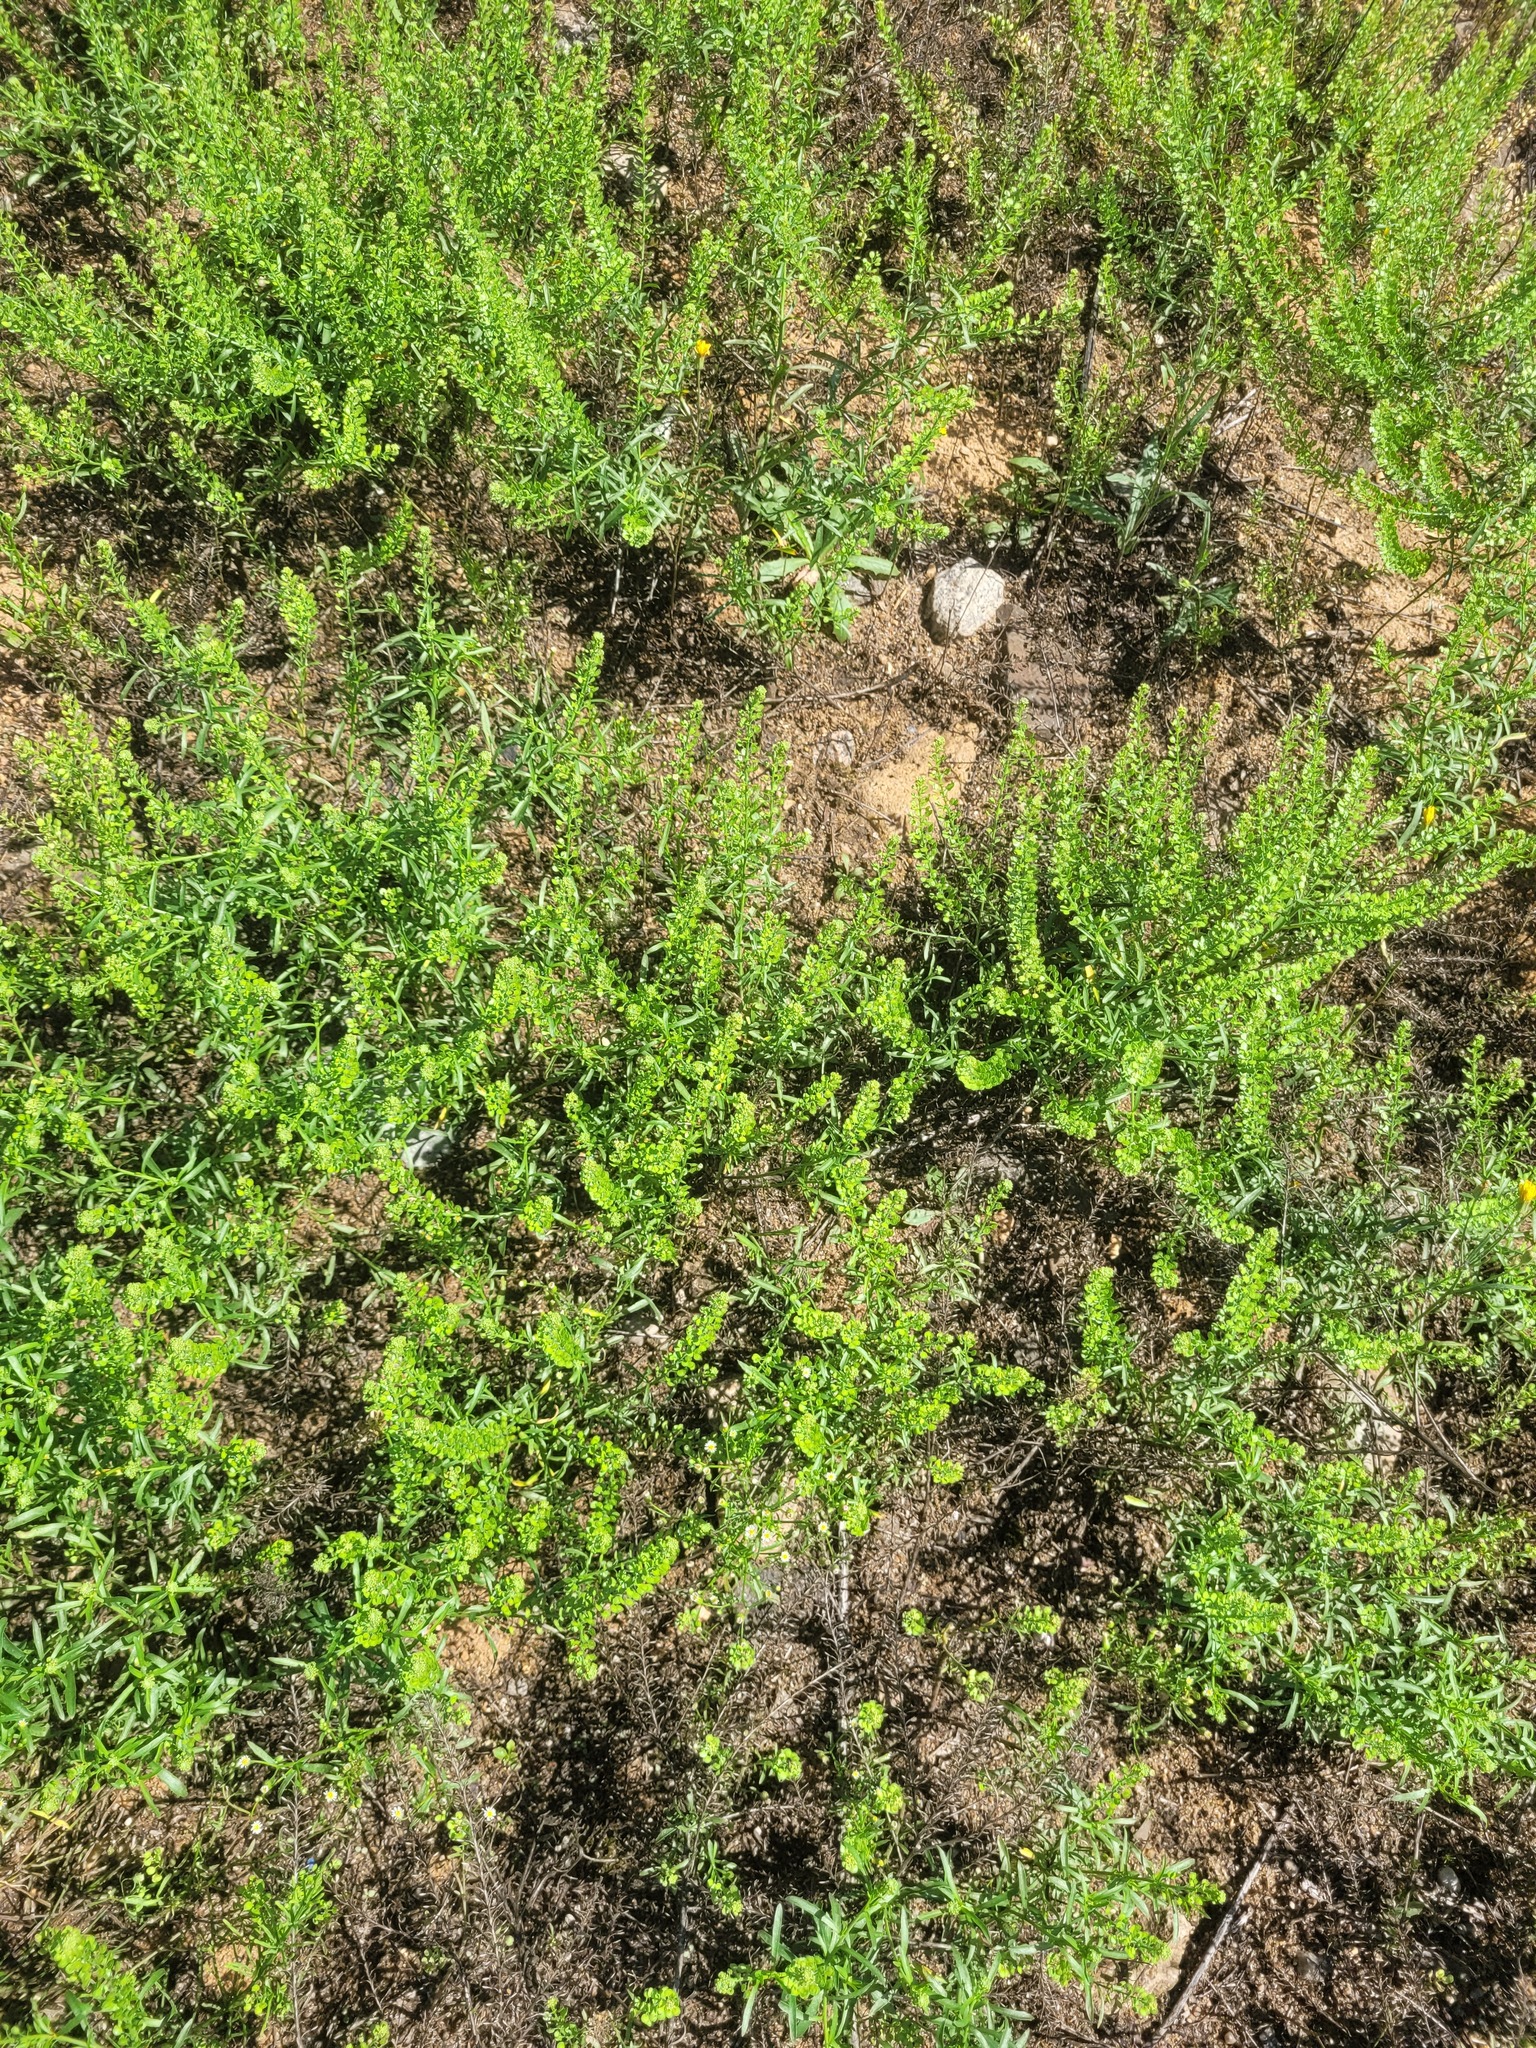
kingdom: Plantae
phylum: Tracheophyta
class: Magnoliopsida
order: Brassicales
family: Brassicaceae
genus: Lepidium
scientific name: Lepidium densiflorum
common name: Miner's pepperwort
